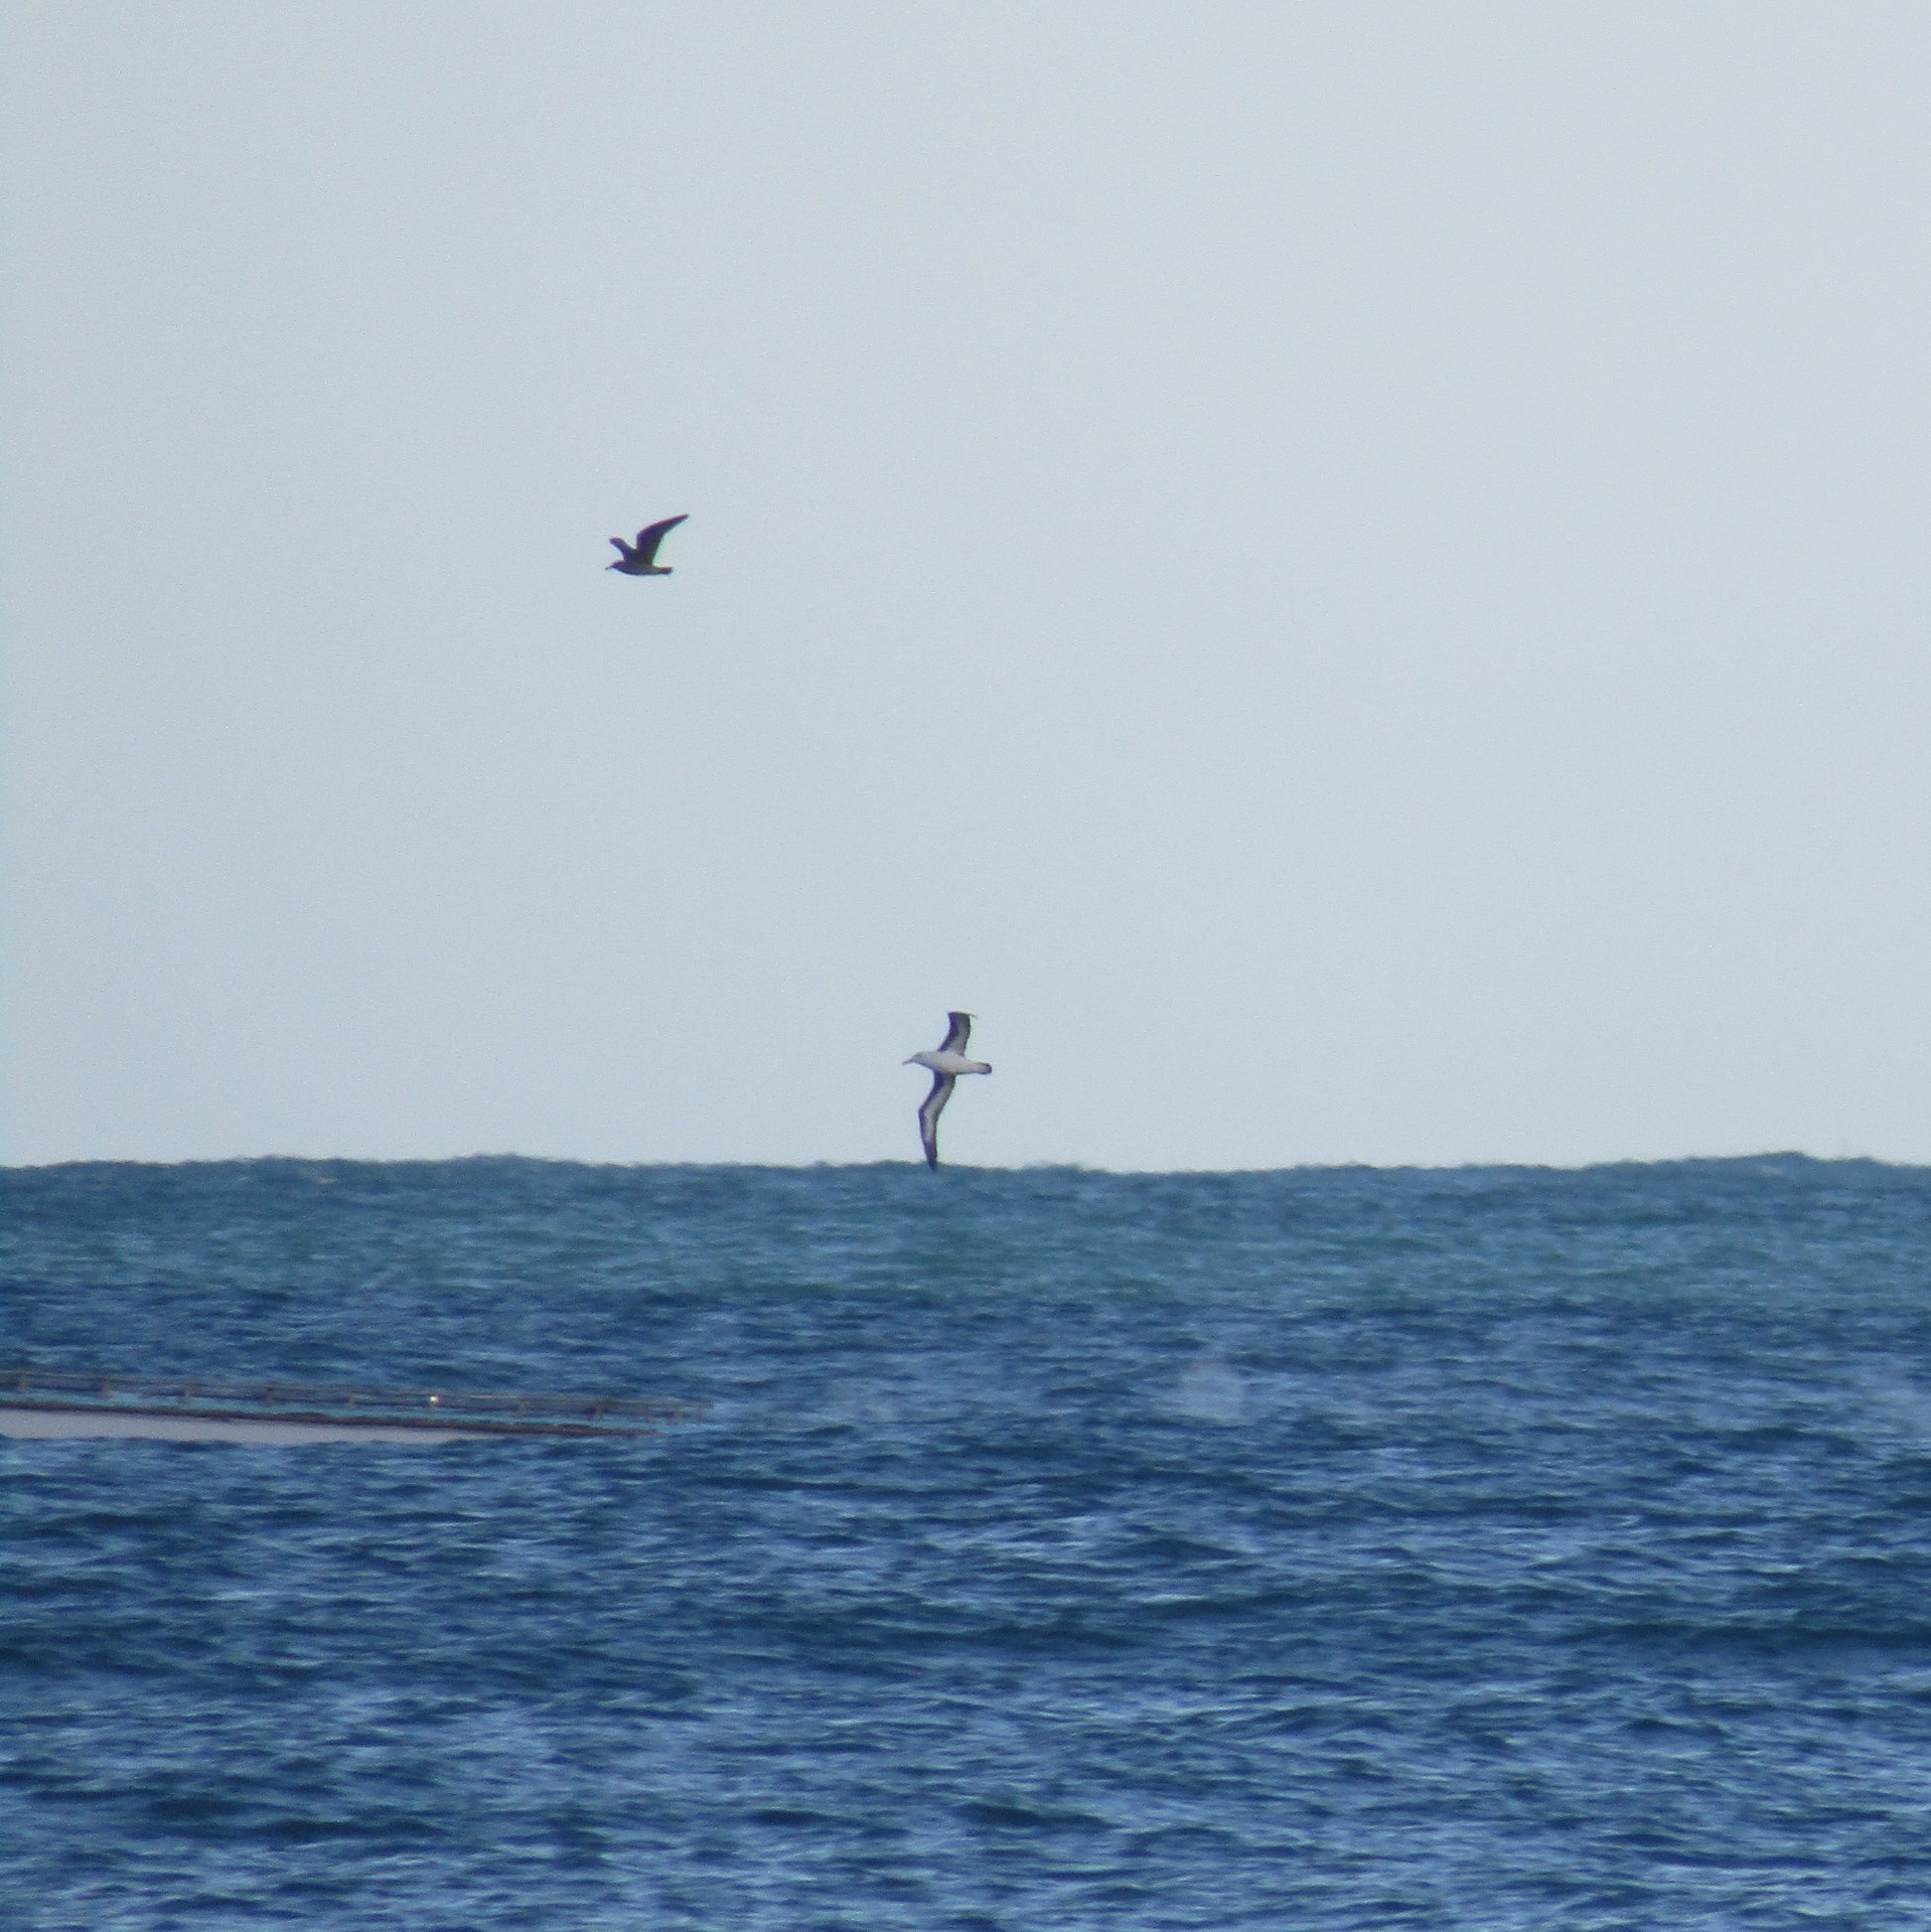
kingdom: Animalia
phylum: Chordata
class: Aves
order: Procellariiformes
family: Diomedeidae
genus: Thalassarche
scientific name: Thalassarche melanophris
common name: Black-browed albatross
